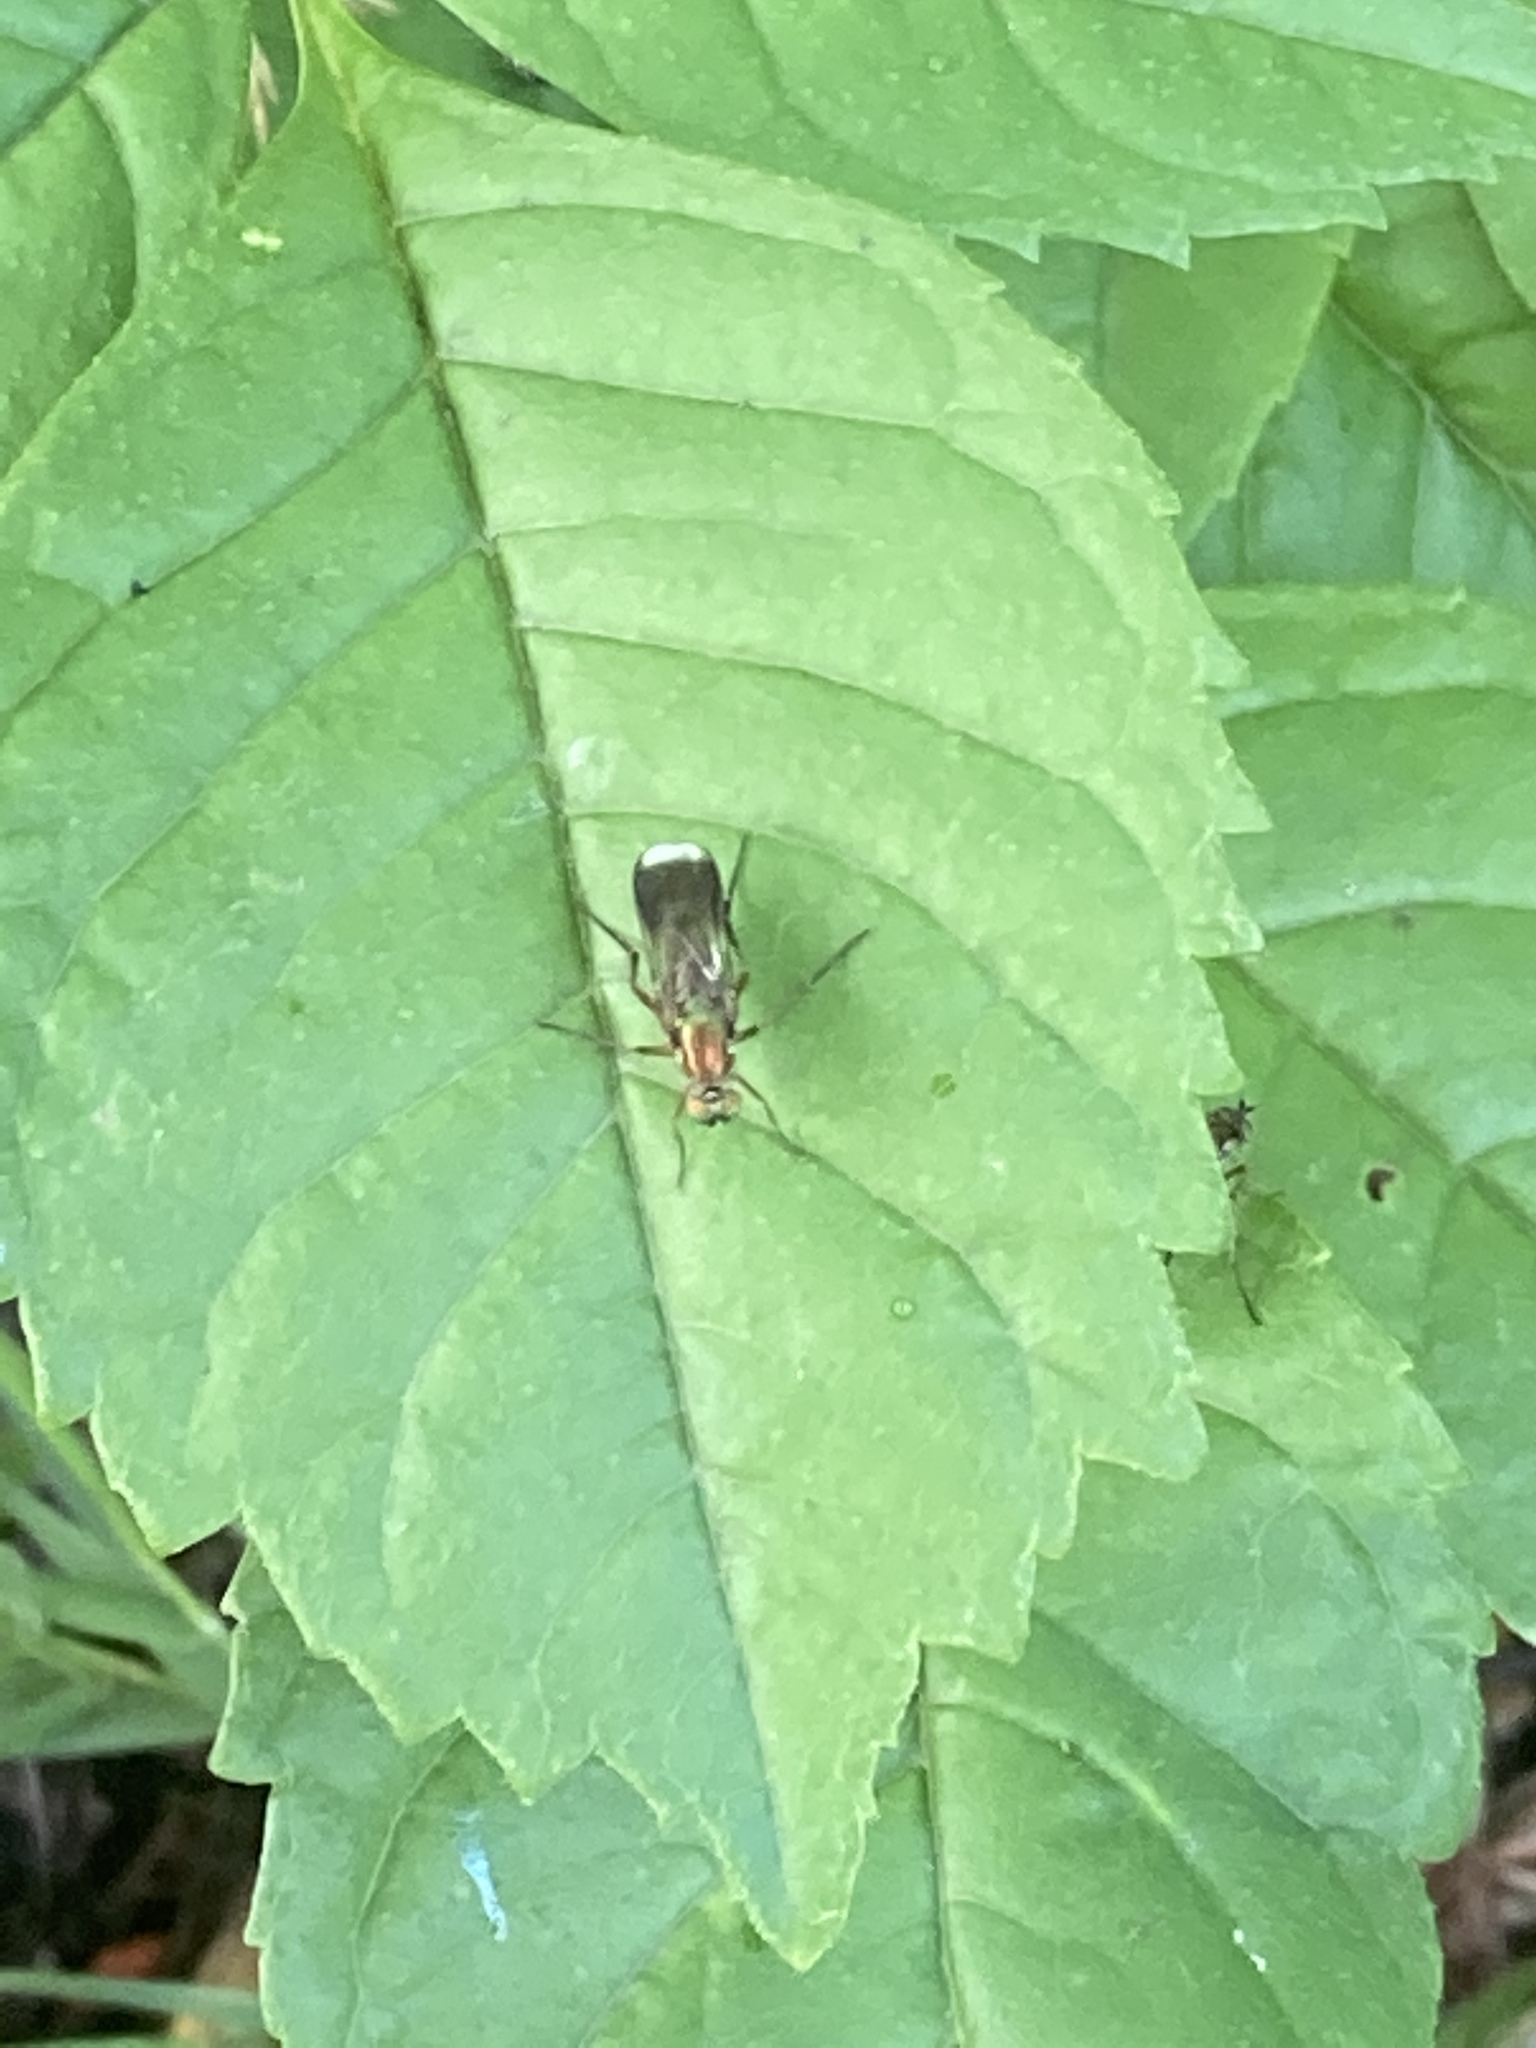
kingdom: Animalia
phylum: Arthropoda
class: Insecta
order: Diptera
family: Dolichopodidae
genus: Poecilobothrus
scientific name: Poecilobothrus nobilitatus
